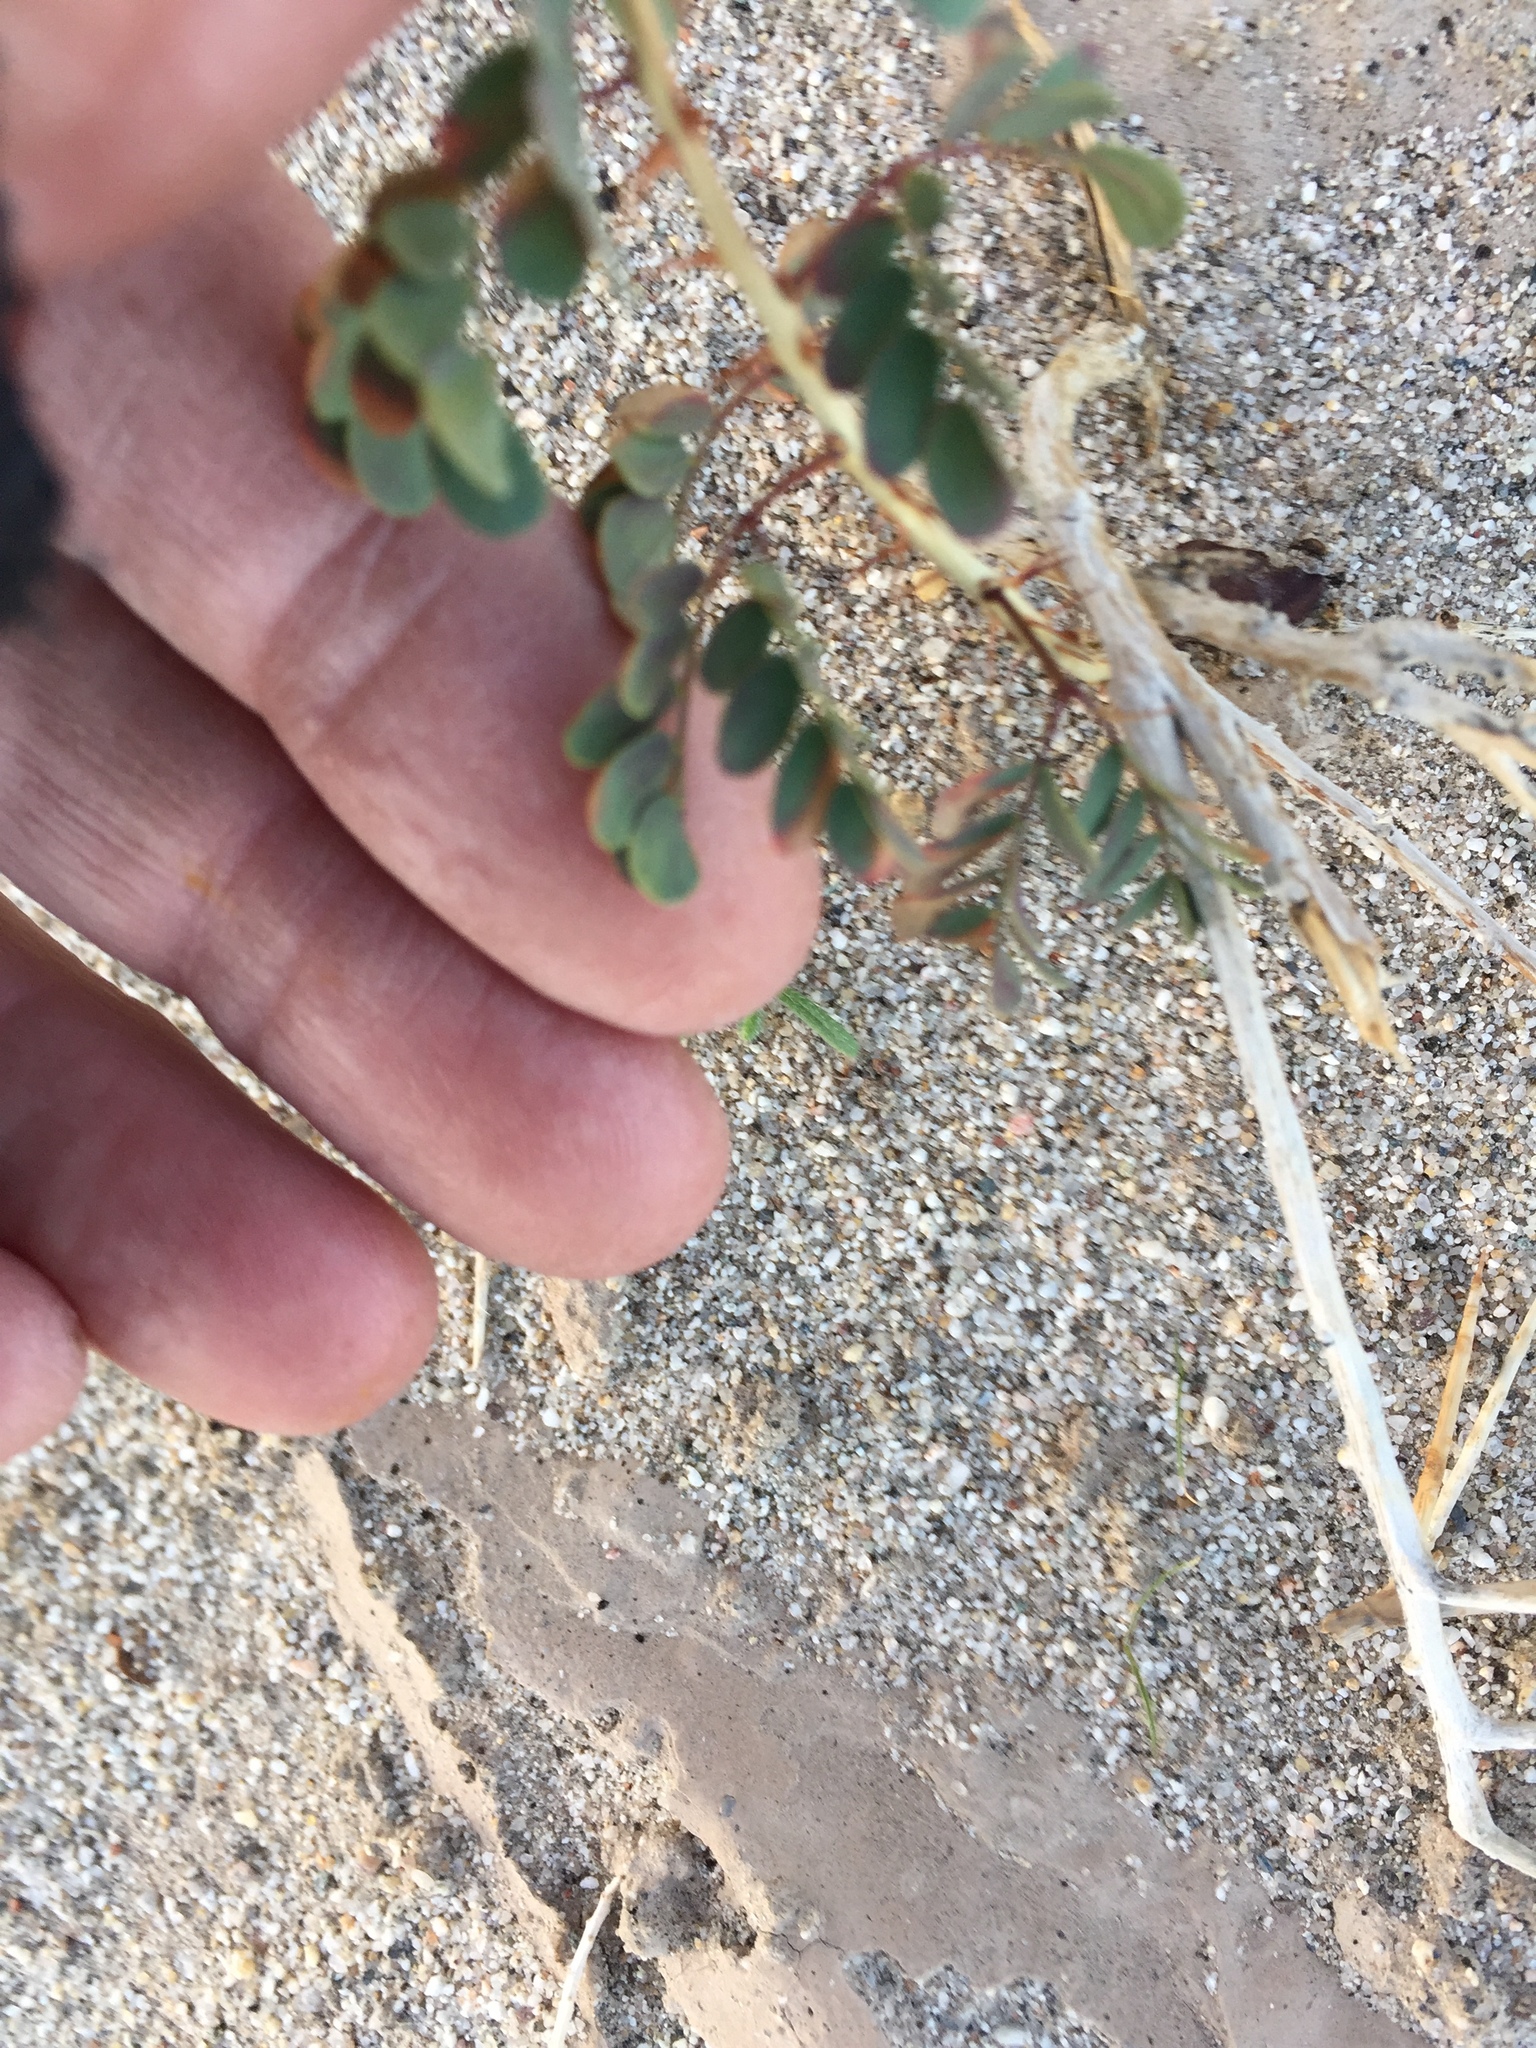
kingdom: Plantae
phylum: Tracheophyta
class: Magnoliopsida
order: Fabales
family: Fabaceae
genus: Senegalia
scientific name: Senegalia greggii
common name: Texas-mimosa
